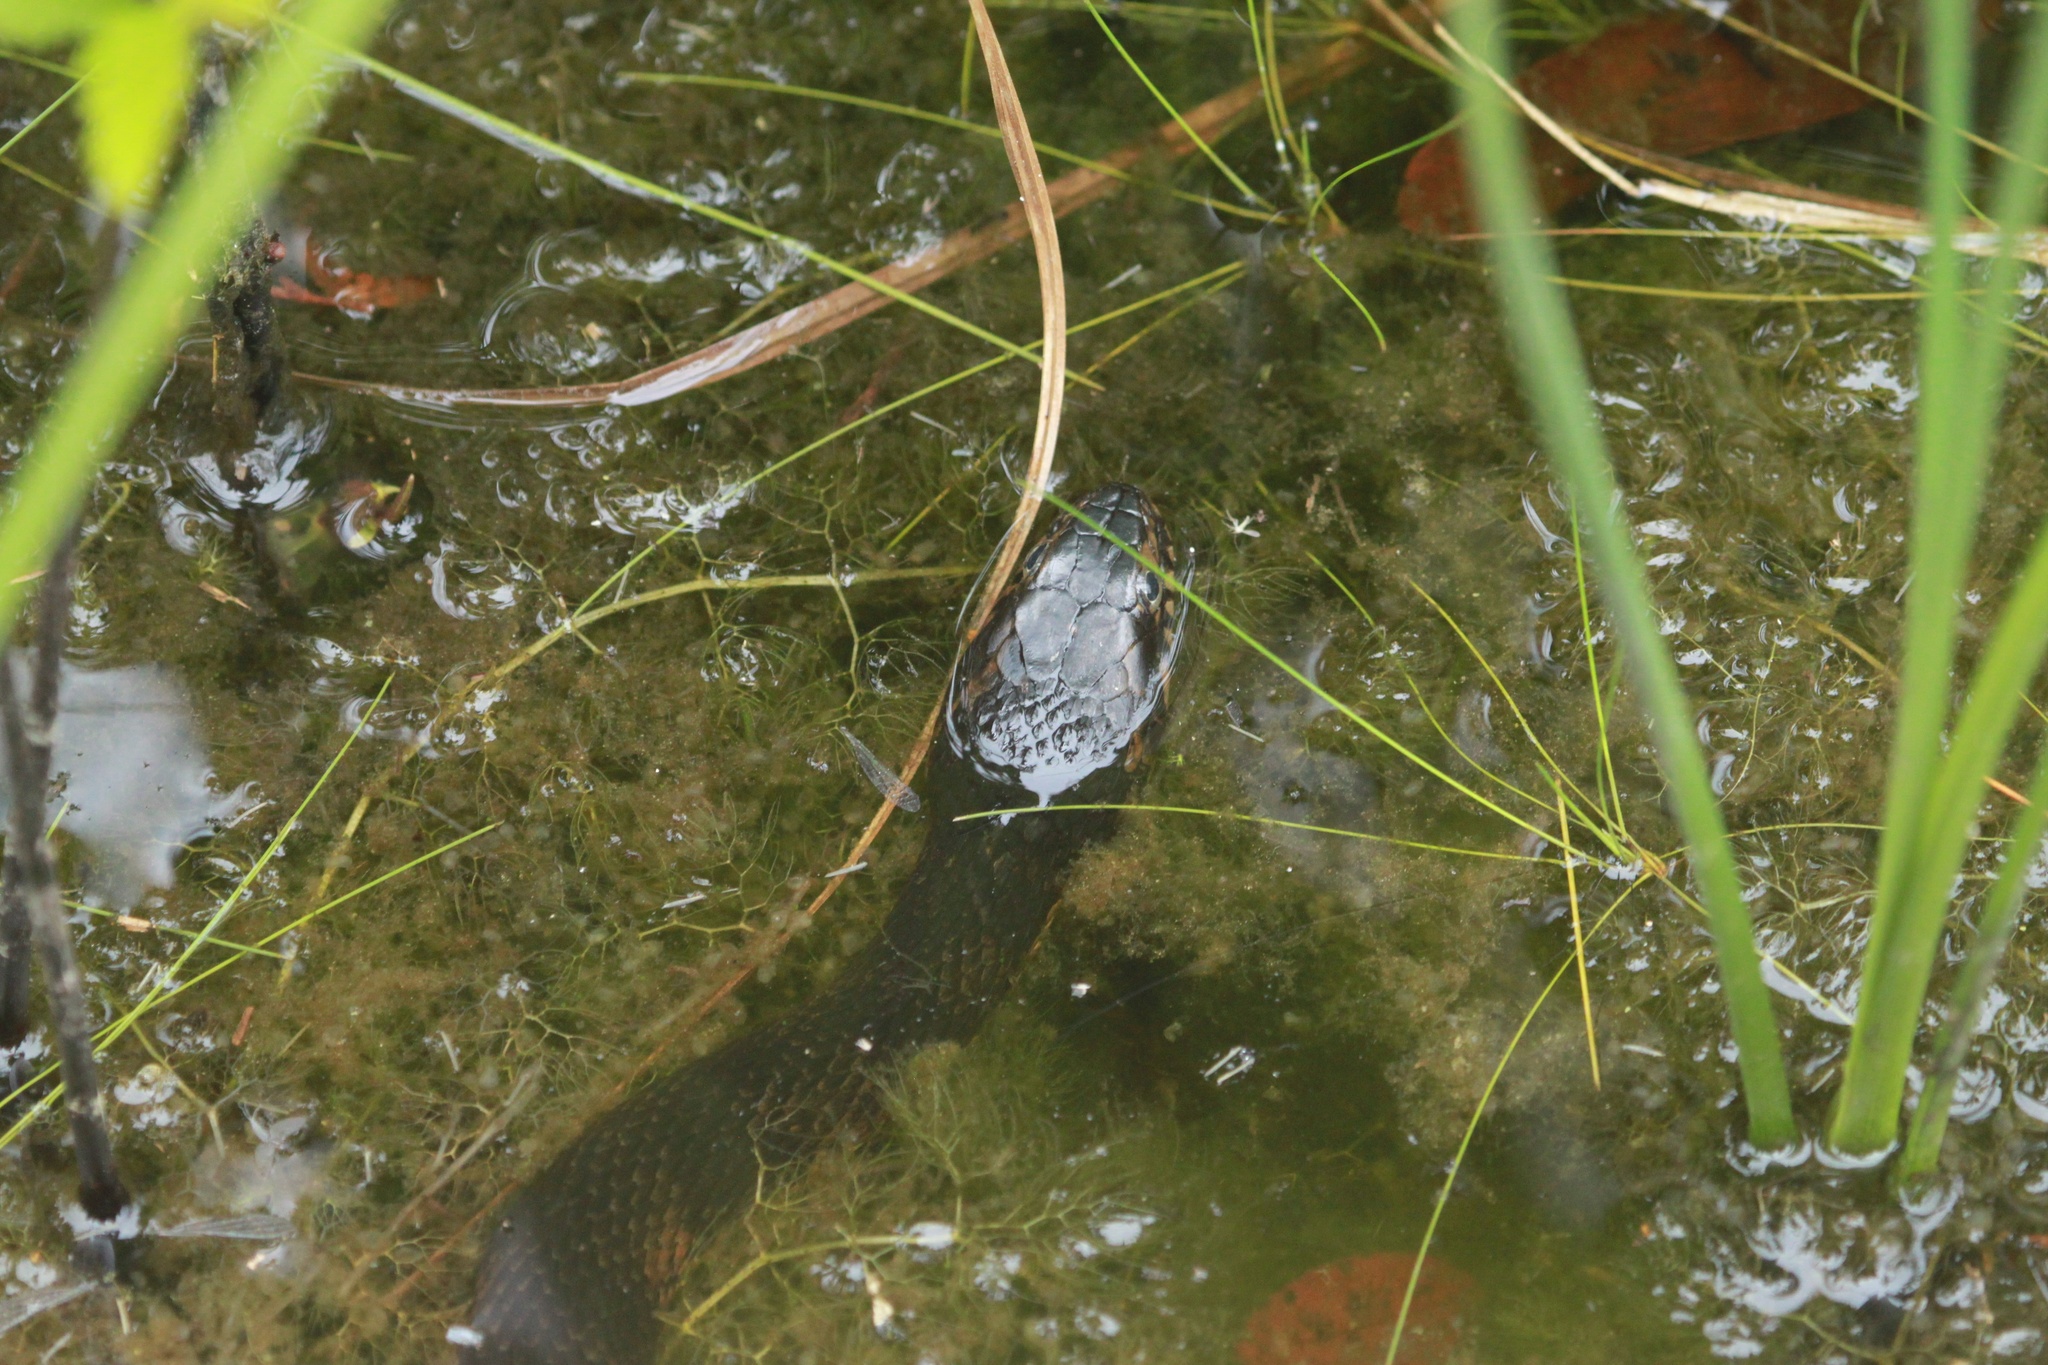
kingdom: Animalia
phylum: Chordata
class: Squamata
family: Colubridae
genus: Nerodia
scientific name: Nerodia fasciata
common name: Southern water snake
